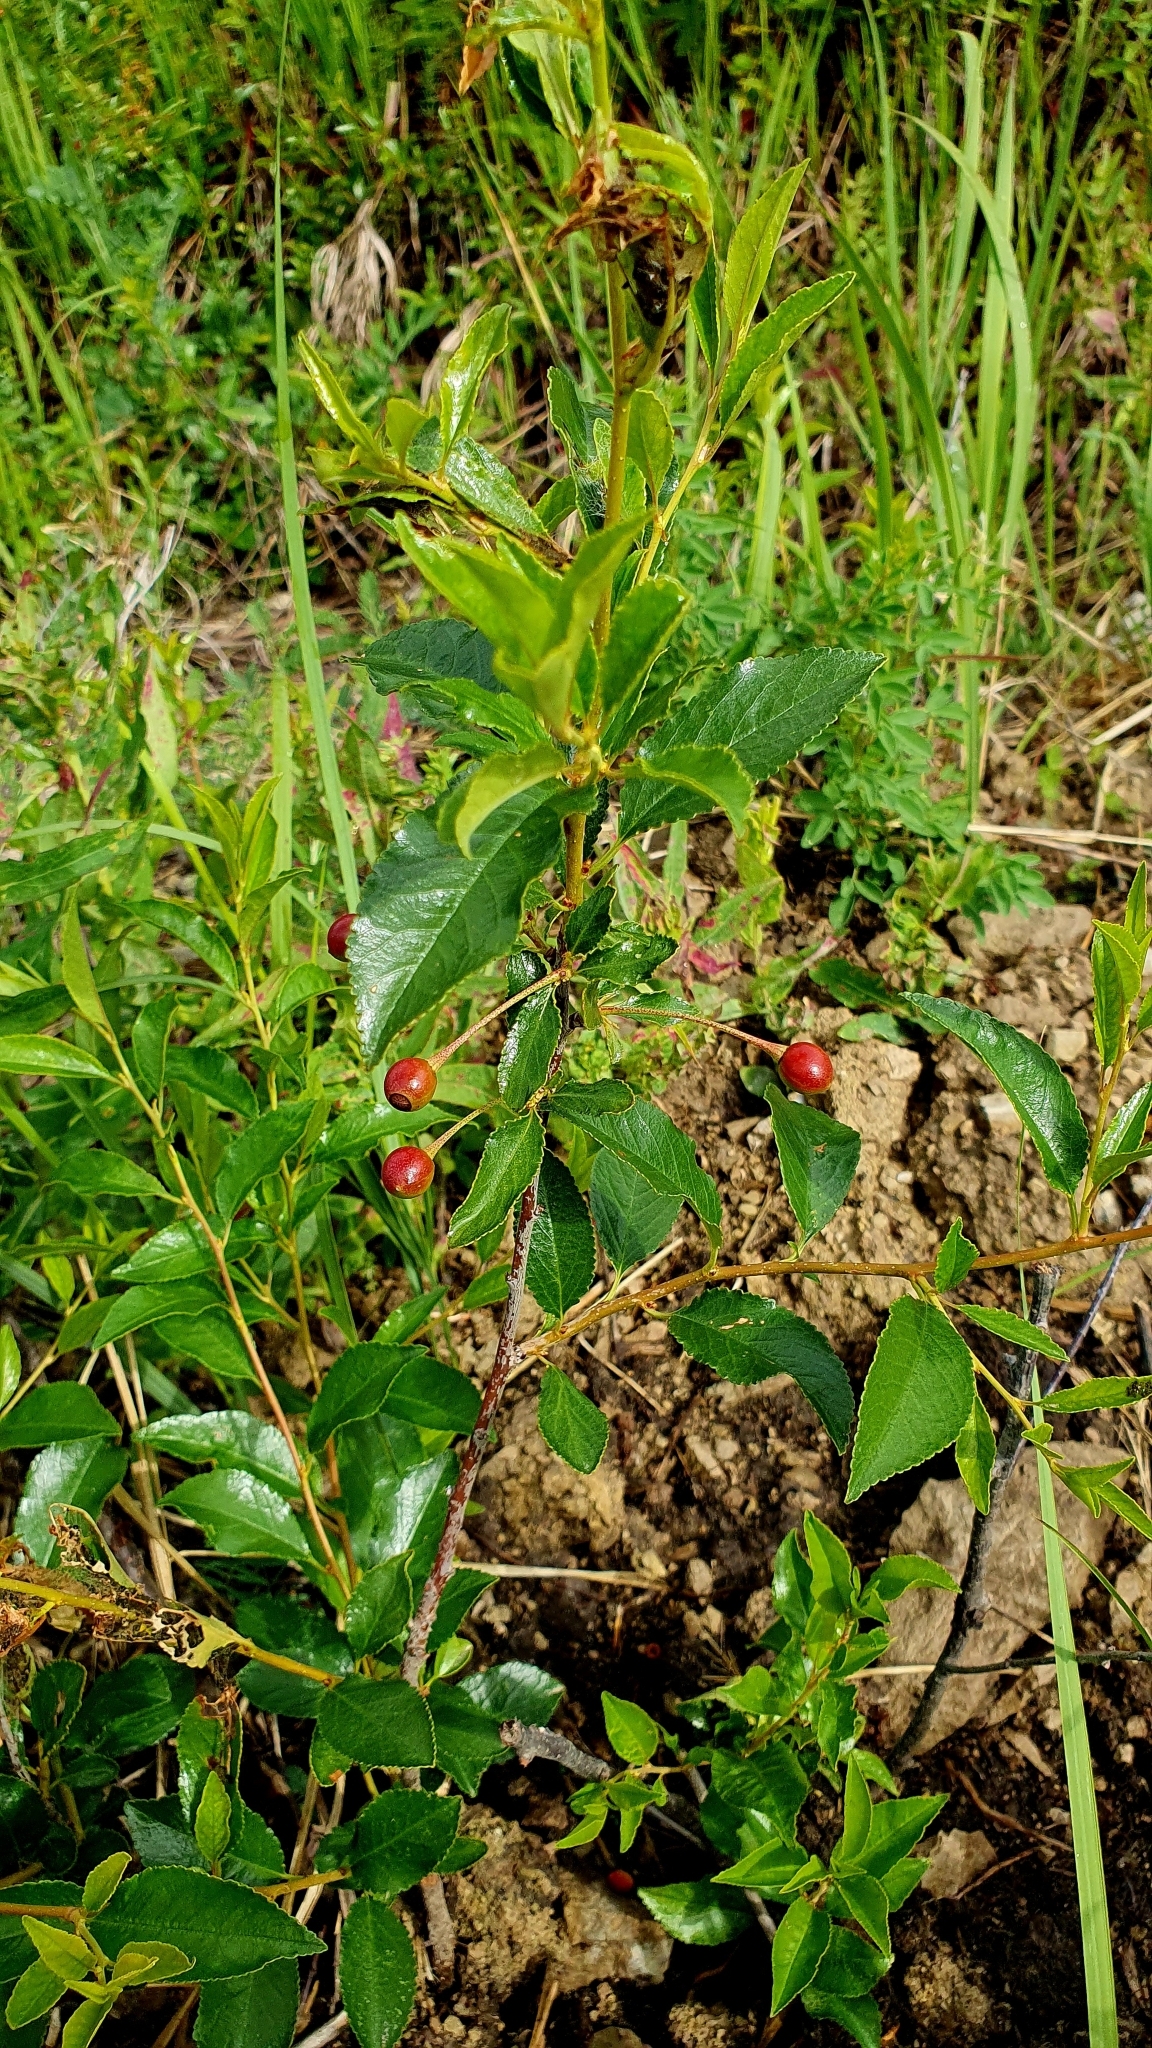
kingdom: Plantae
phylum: Tracheophyta
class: Magnoliopsida
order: Rosales
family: Rosaceae
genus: Prunus
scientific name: Prunus fruticosa
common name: European dwarf cherry
